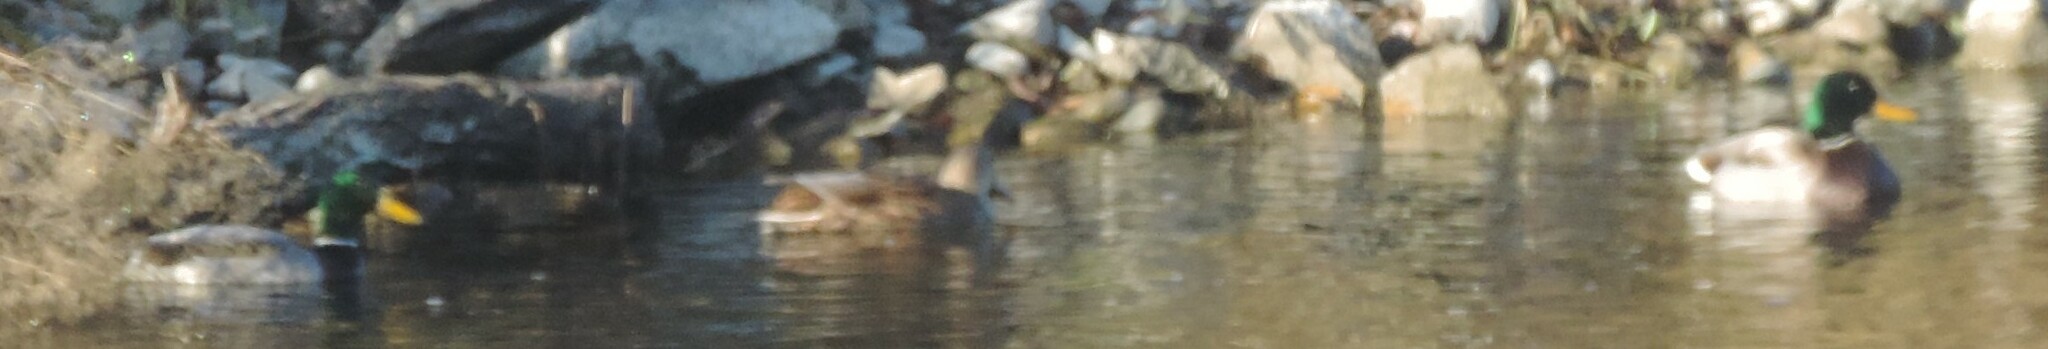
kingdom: Animalia
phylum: Chordata
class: Aves
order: Anseriformes
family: Anatidae
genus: Anas
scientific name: Anas platyrhynchos
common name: Mallard
